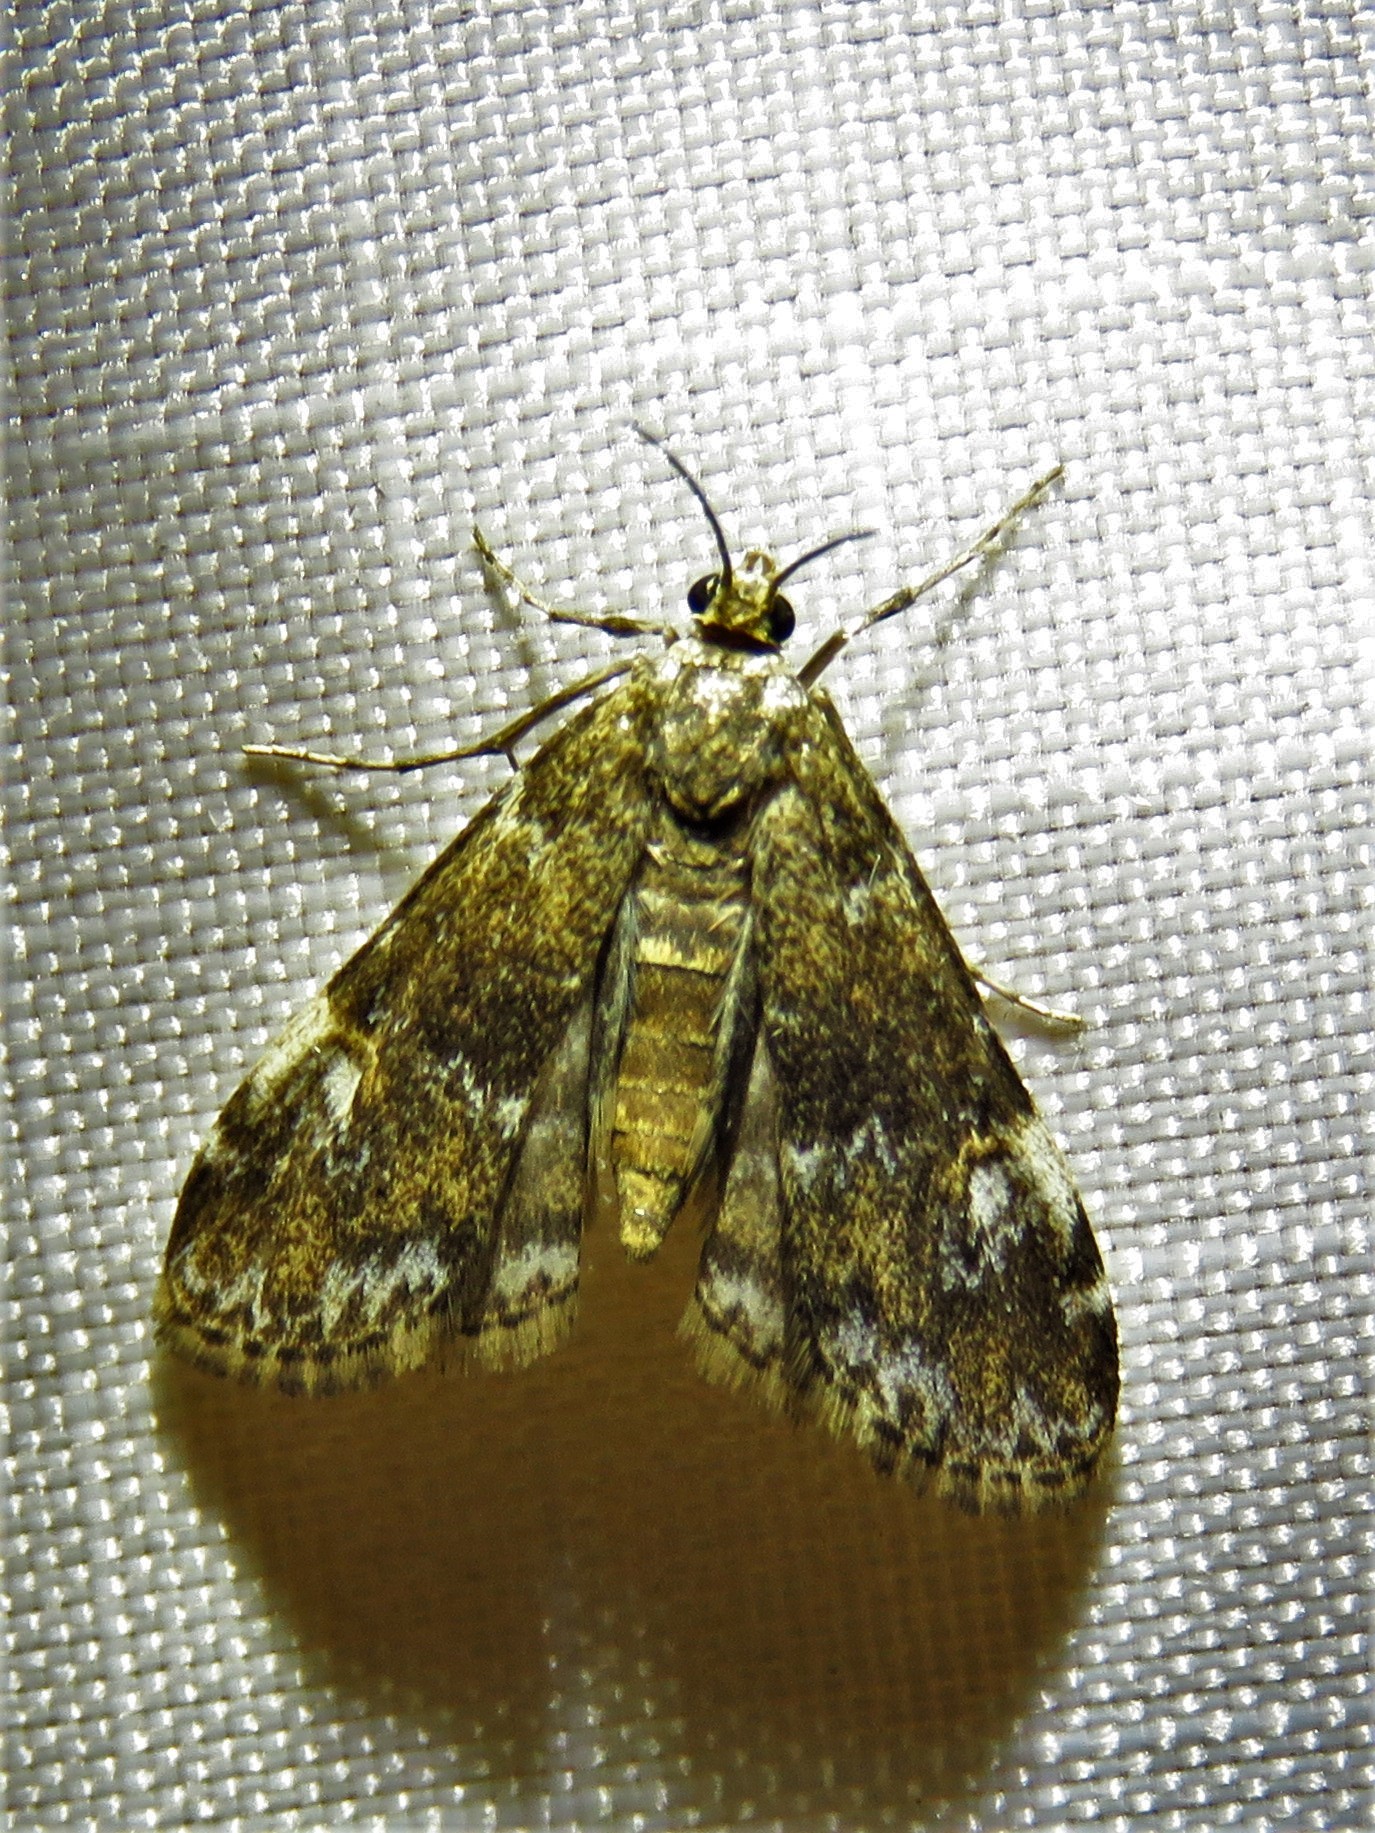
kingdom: Animalia
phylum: Arthropoda
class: Insecta
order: Lepidoptera
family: Crambidae
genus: Elophila
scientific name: Elophila obliteralis
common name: Waterlily leafcutter moth
